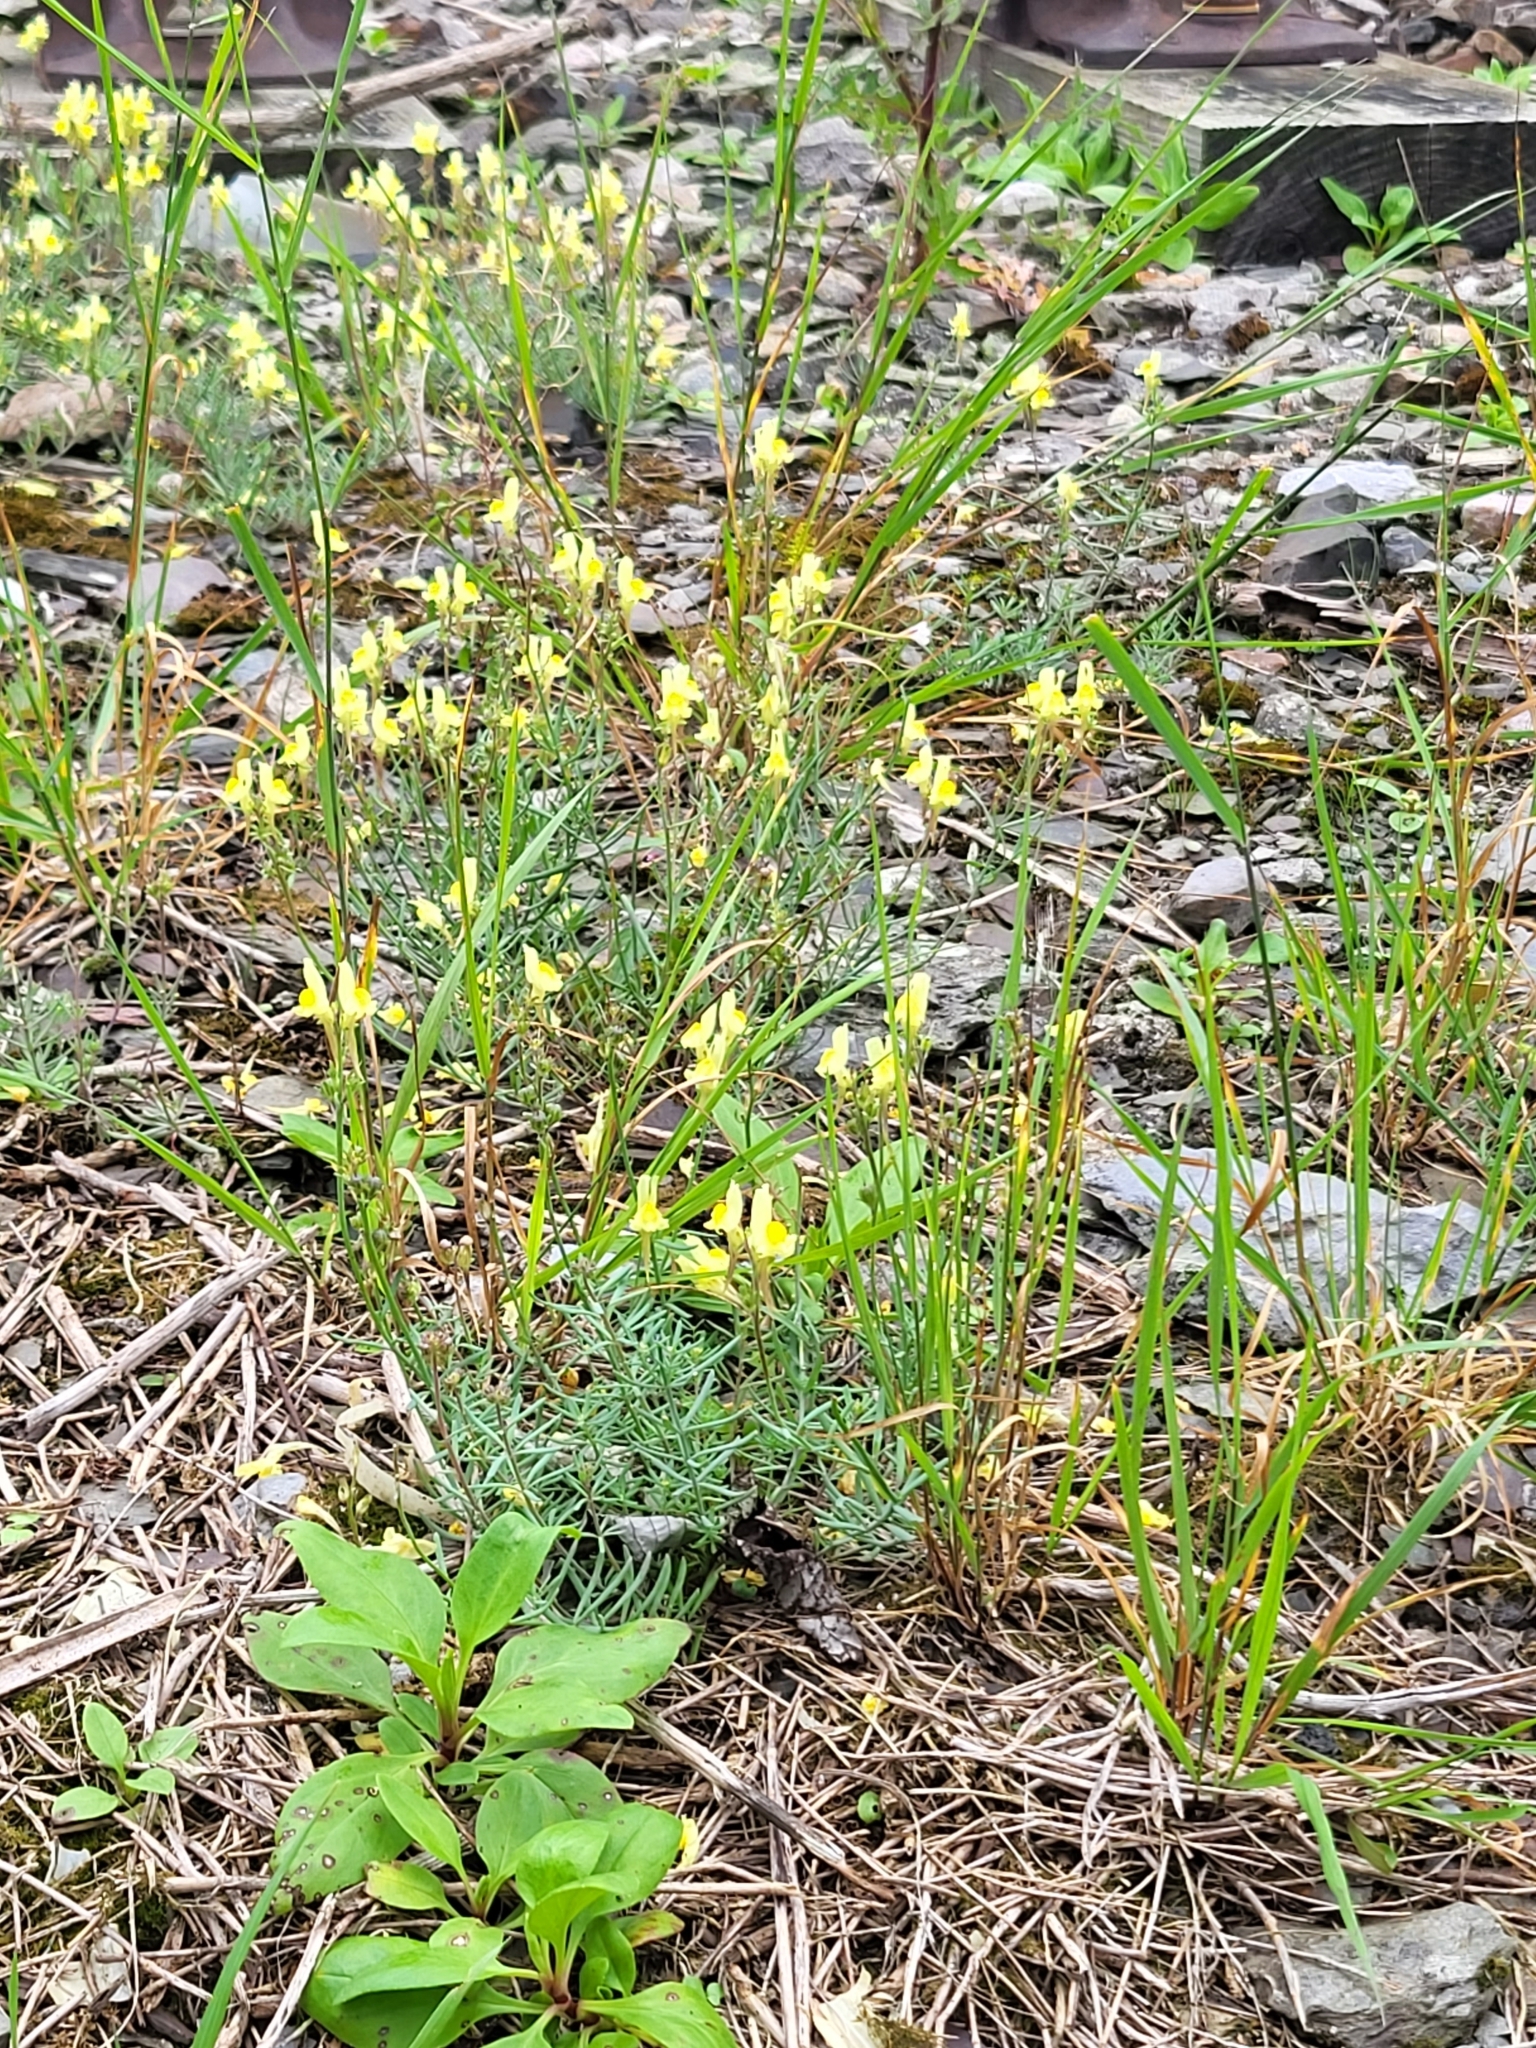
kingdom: Plantae
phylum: Tracheophyta
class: Magnoliopsida
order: Lamiales
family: Plantaginaceae
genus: Linaria
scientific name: Linaria vulgaris
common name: Butter and eggs
